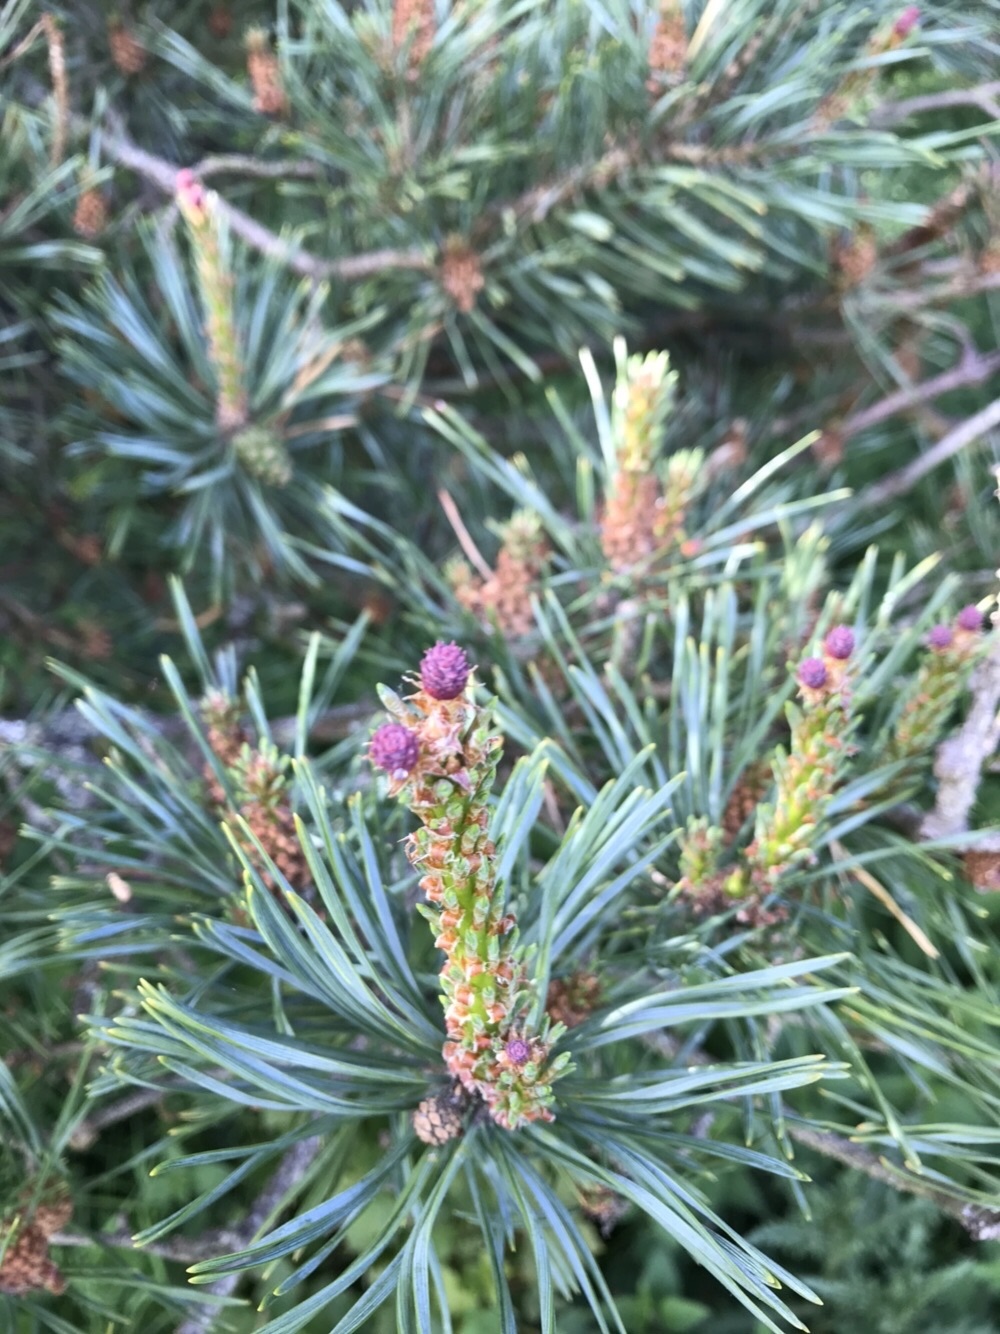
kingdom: Plantae
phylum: Tracheophyta
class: Pinopsida
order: Pinales
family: Pinaceae
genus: Pinus
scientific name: Pinus sylvestris
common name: Scots pine
